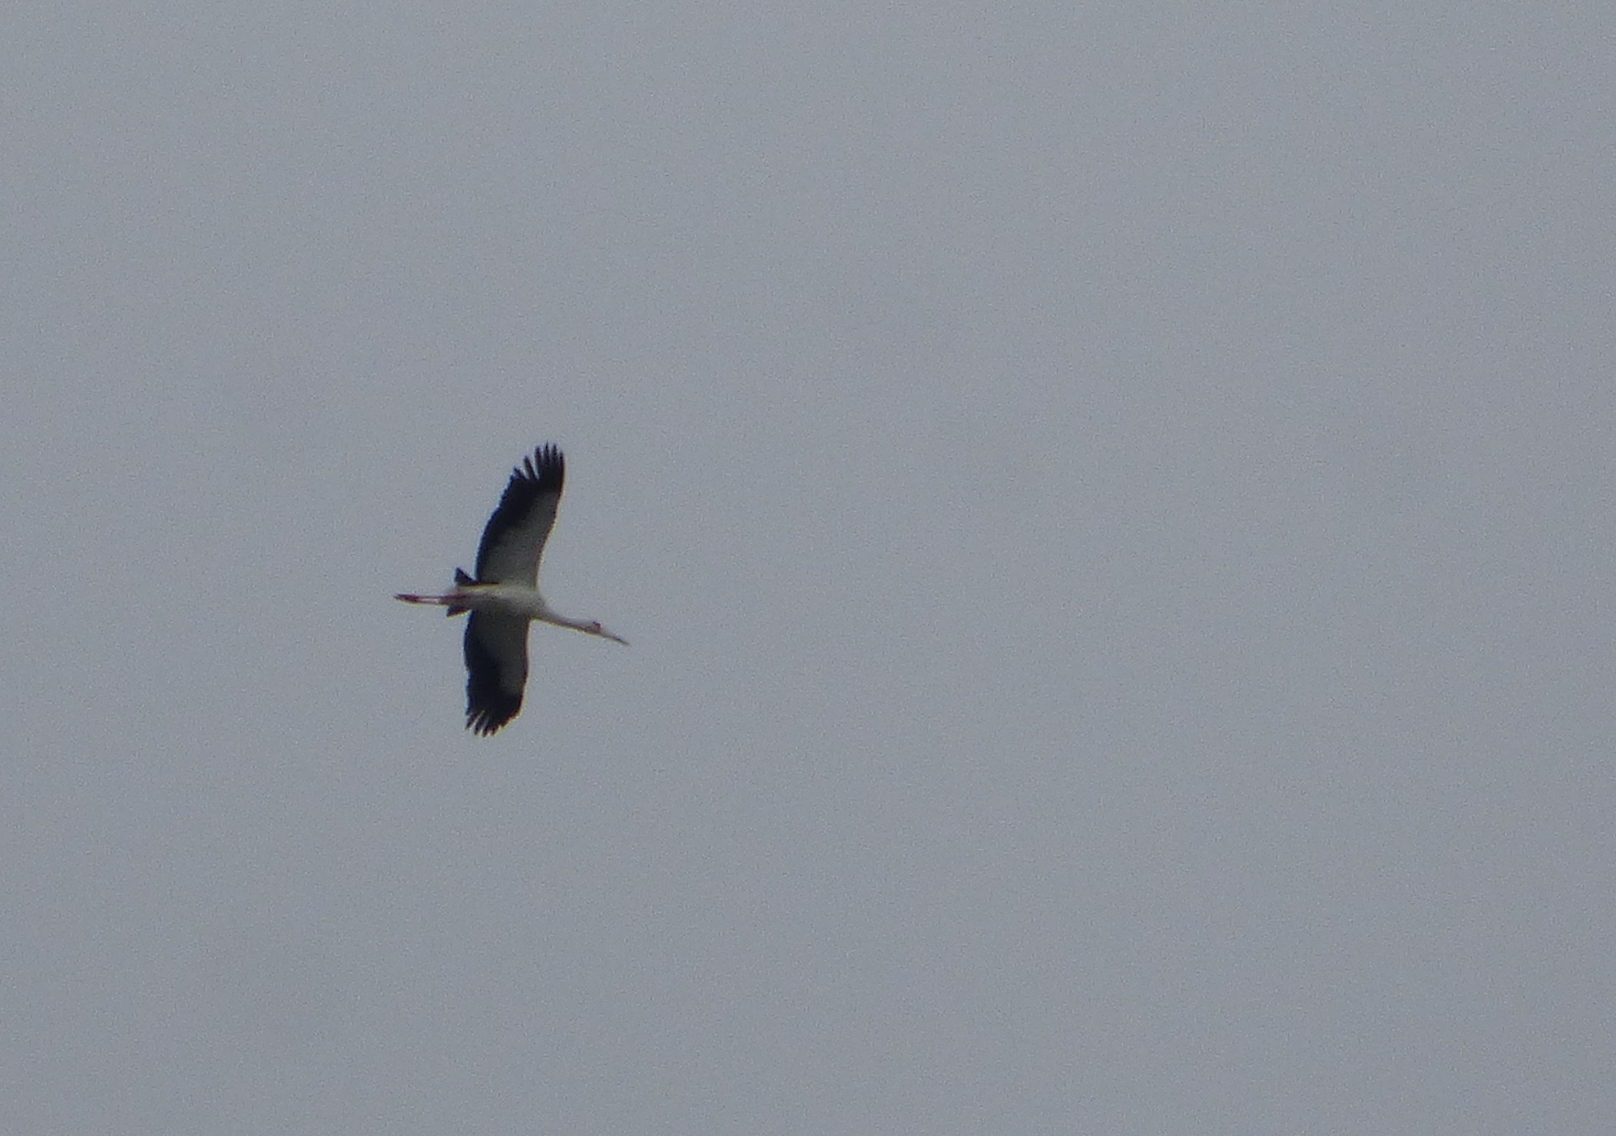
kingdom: Animalia
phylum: Chordata
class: Aves
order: Ciconiiformes
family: Ciconiidae
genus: Ciconia
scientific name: Ciconia maguari
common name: Maguari stork
